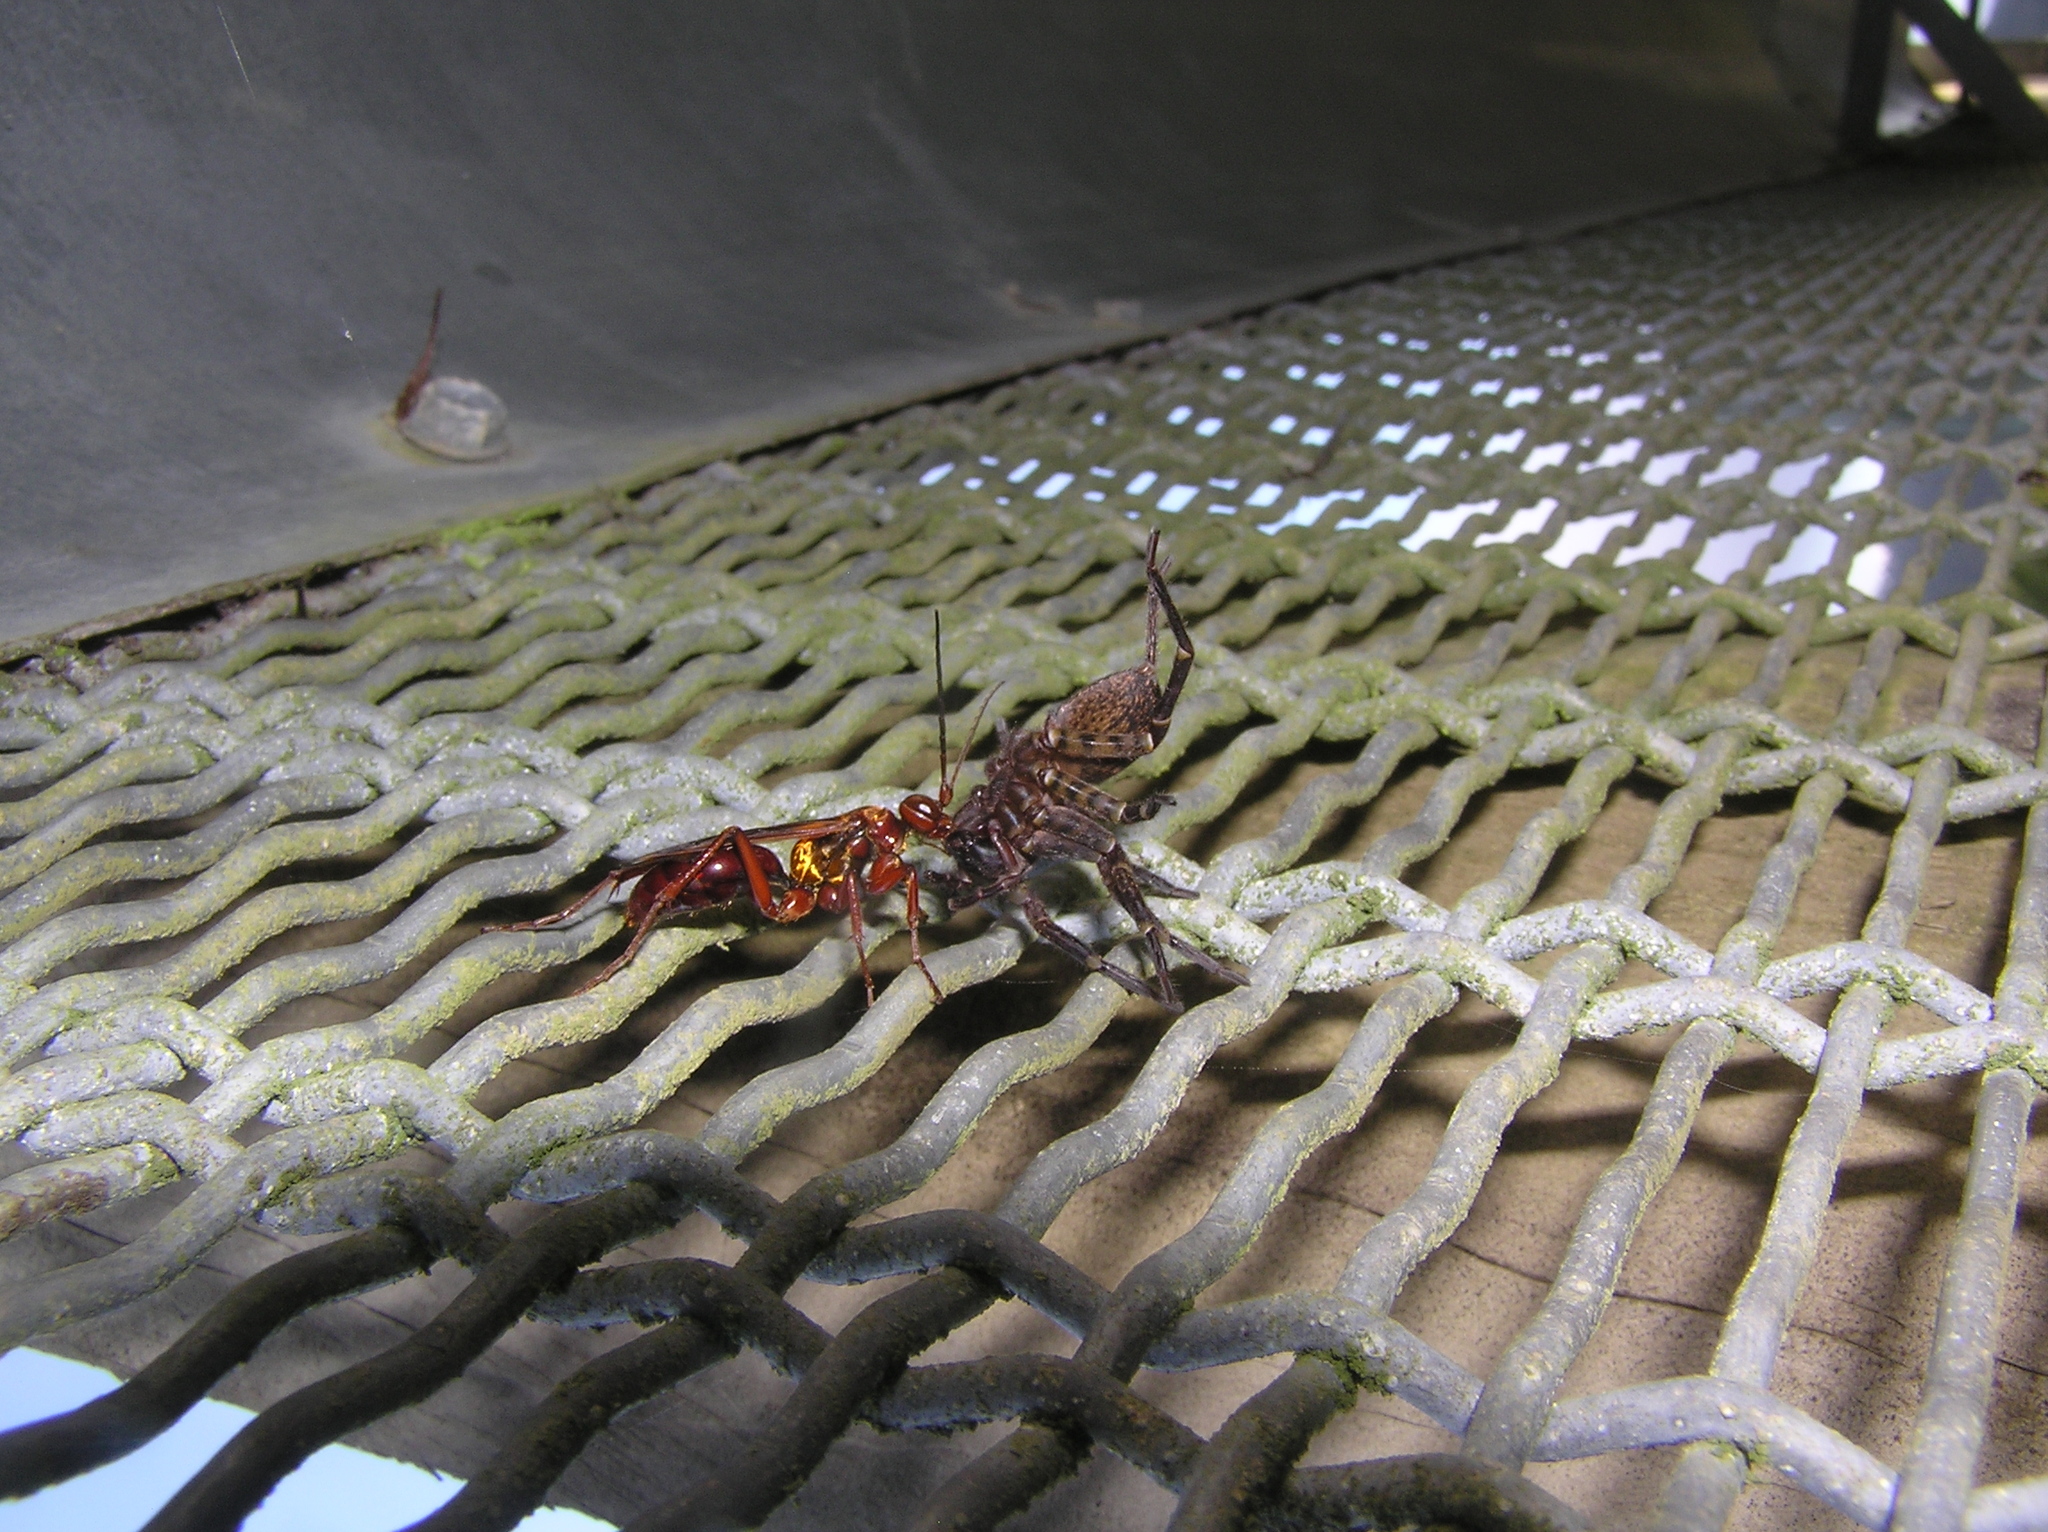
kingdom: Animalia
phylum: Arthropoda
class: Insecta
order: Hymenoptera
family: Pompilidae
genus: Sphictostethus
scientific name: Sphictostethus nitidus
